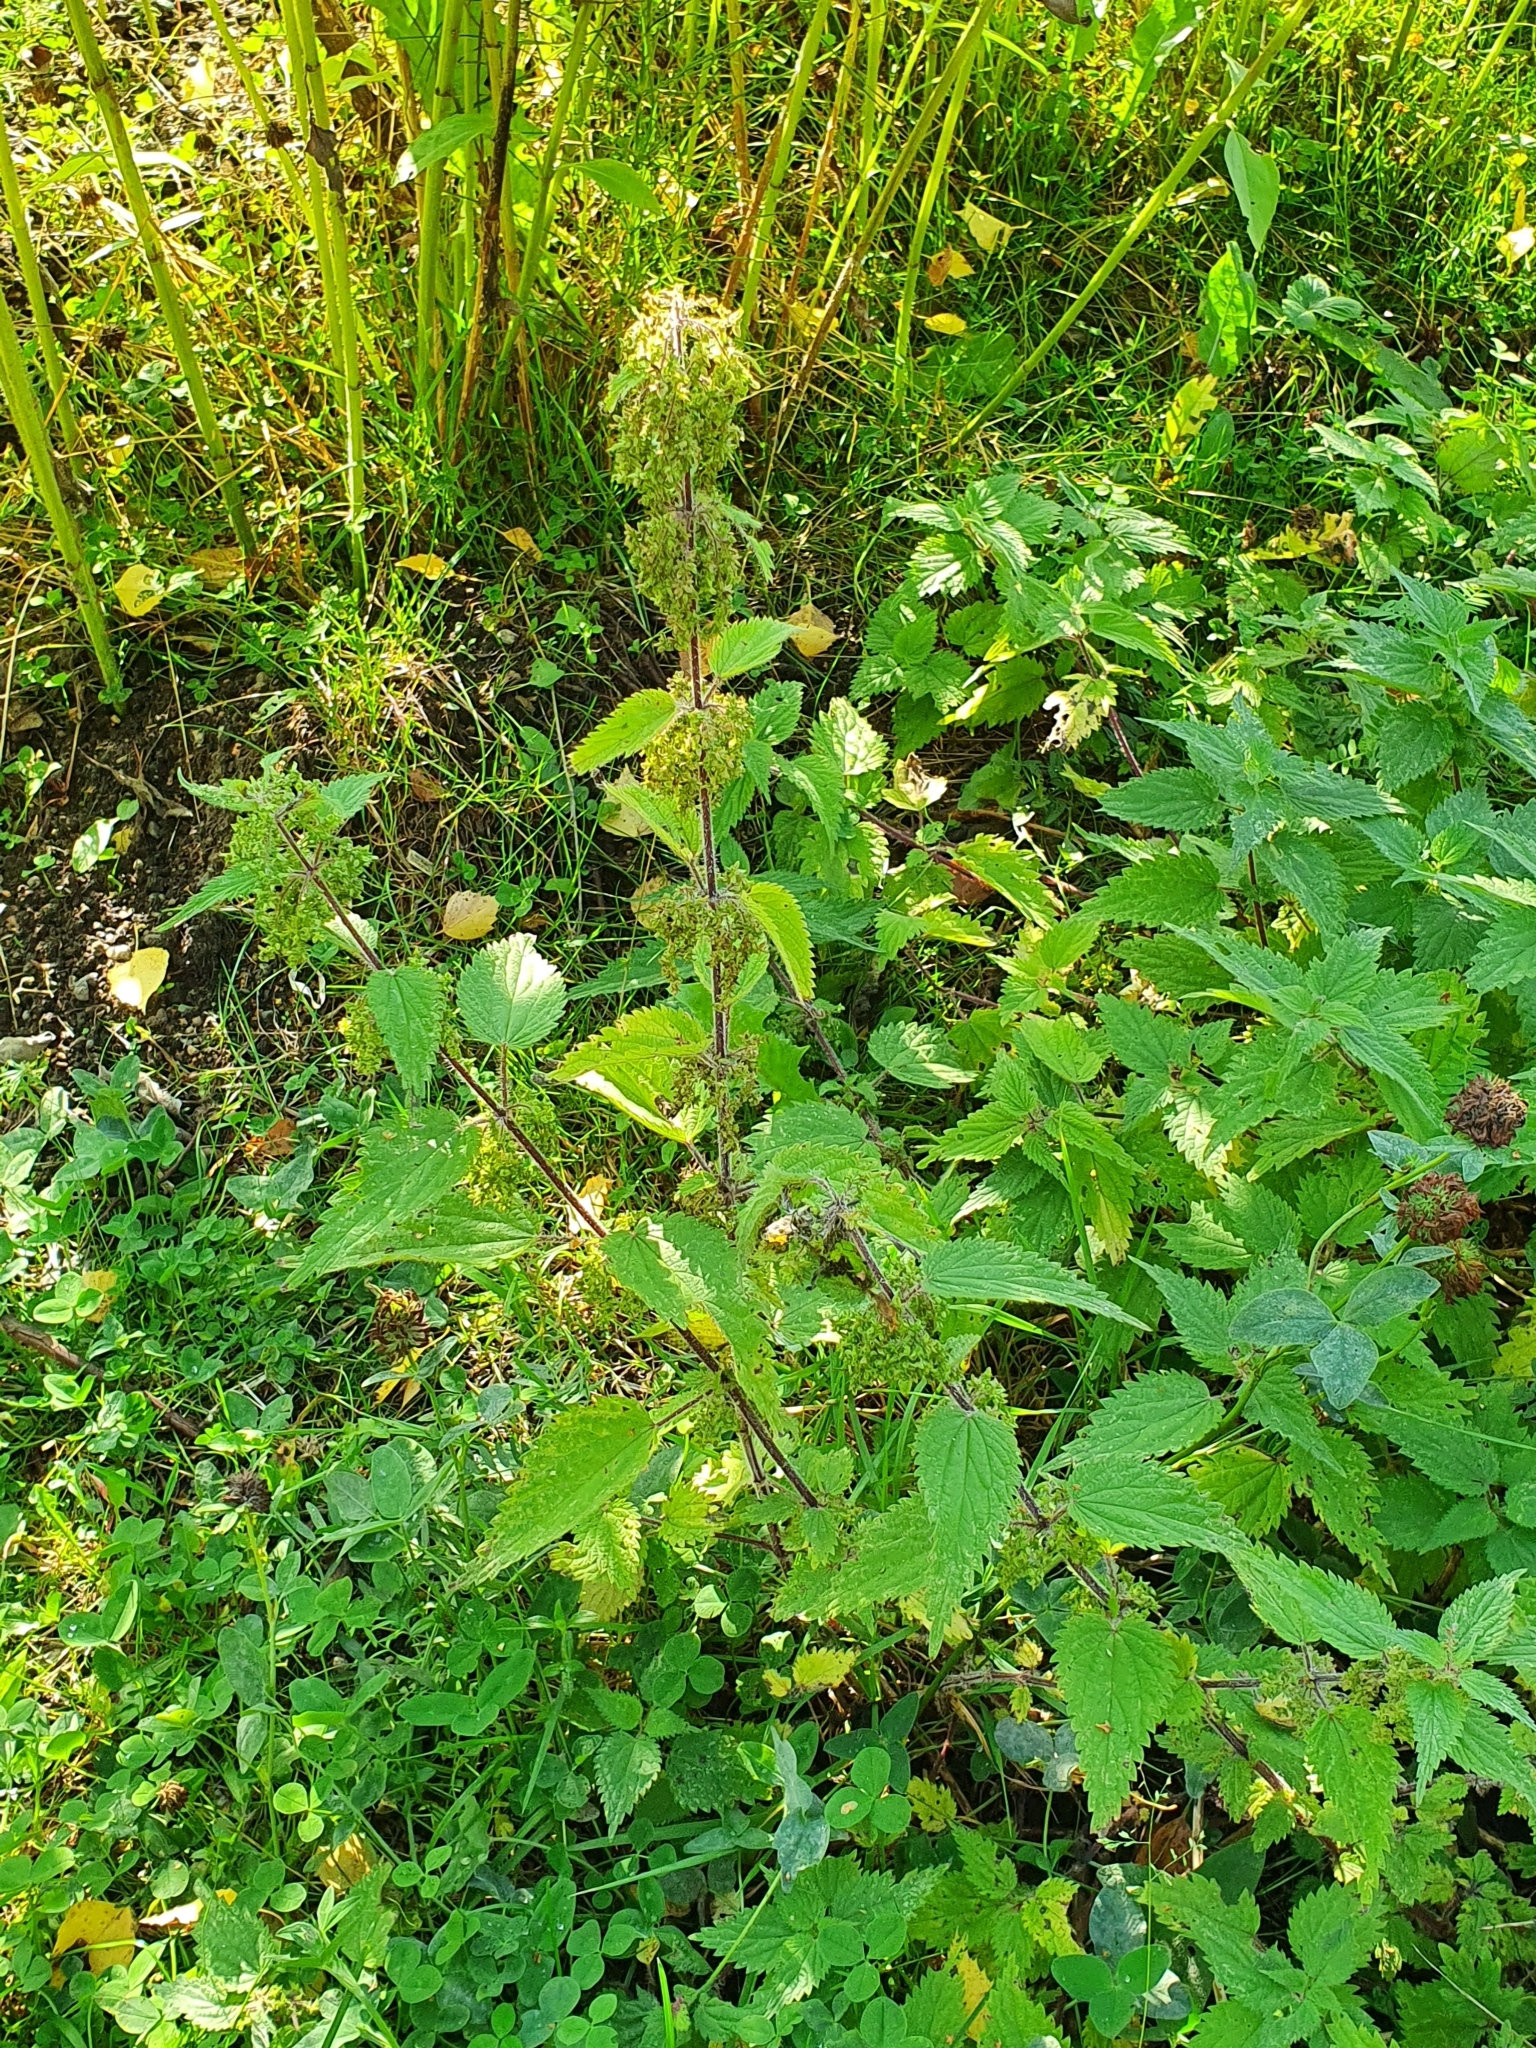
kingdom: Plantae
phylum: Tracheophyta
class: Magnoliopsida
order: Rosales
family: Urticaceae
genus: Urtica
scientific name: Urtica dioica
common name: Common nettle
